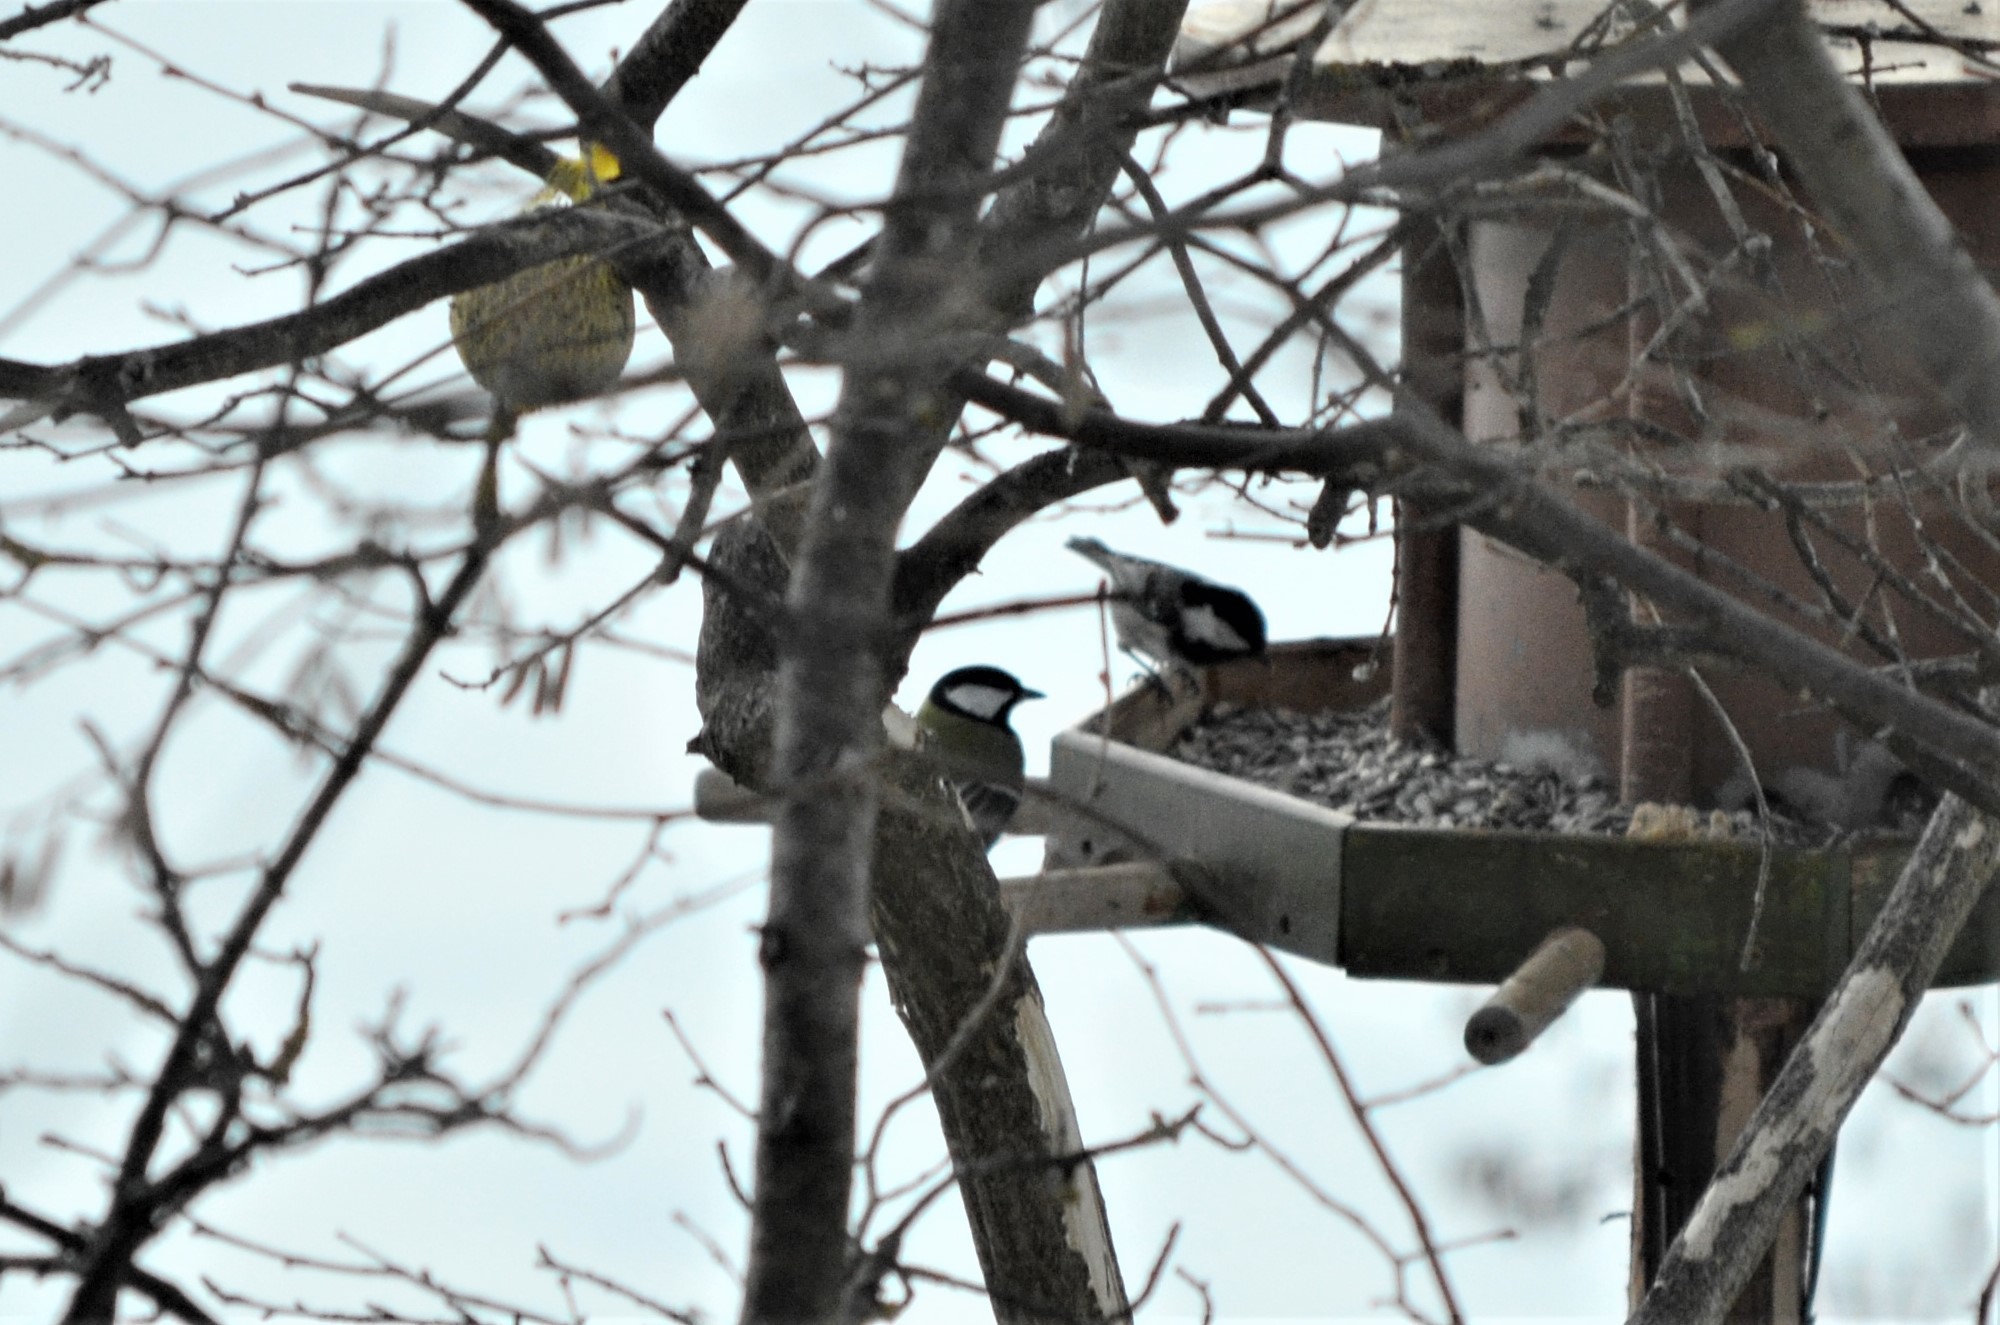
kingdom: Animalia
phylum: Chordata
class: Aves
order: Passeriformes
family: Paridae
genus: Periparus
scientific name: Periparus ater
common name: Coal tit
